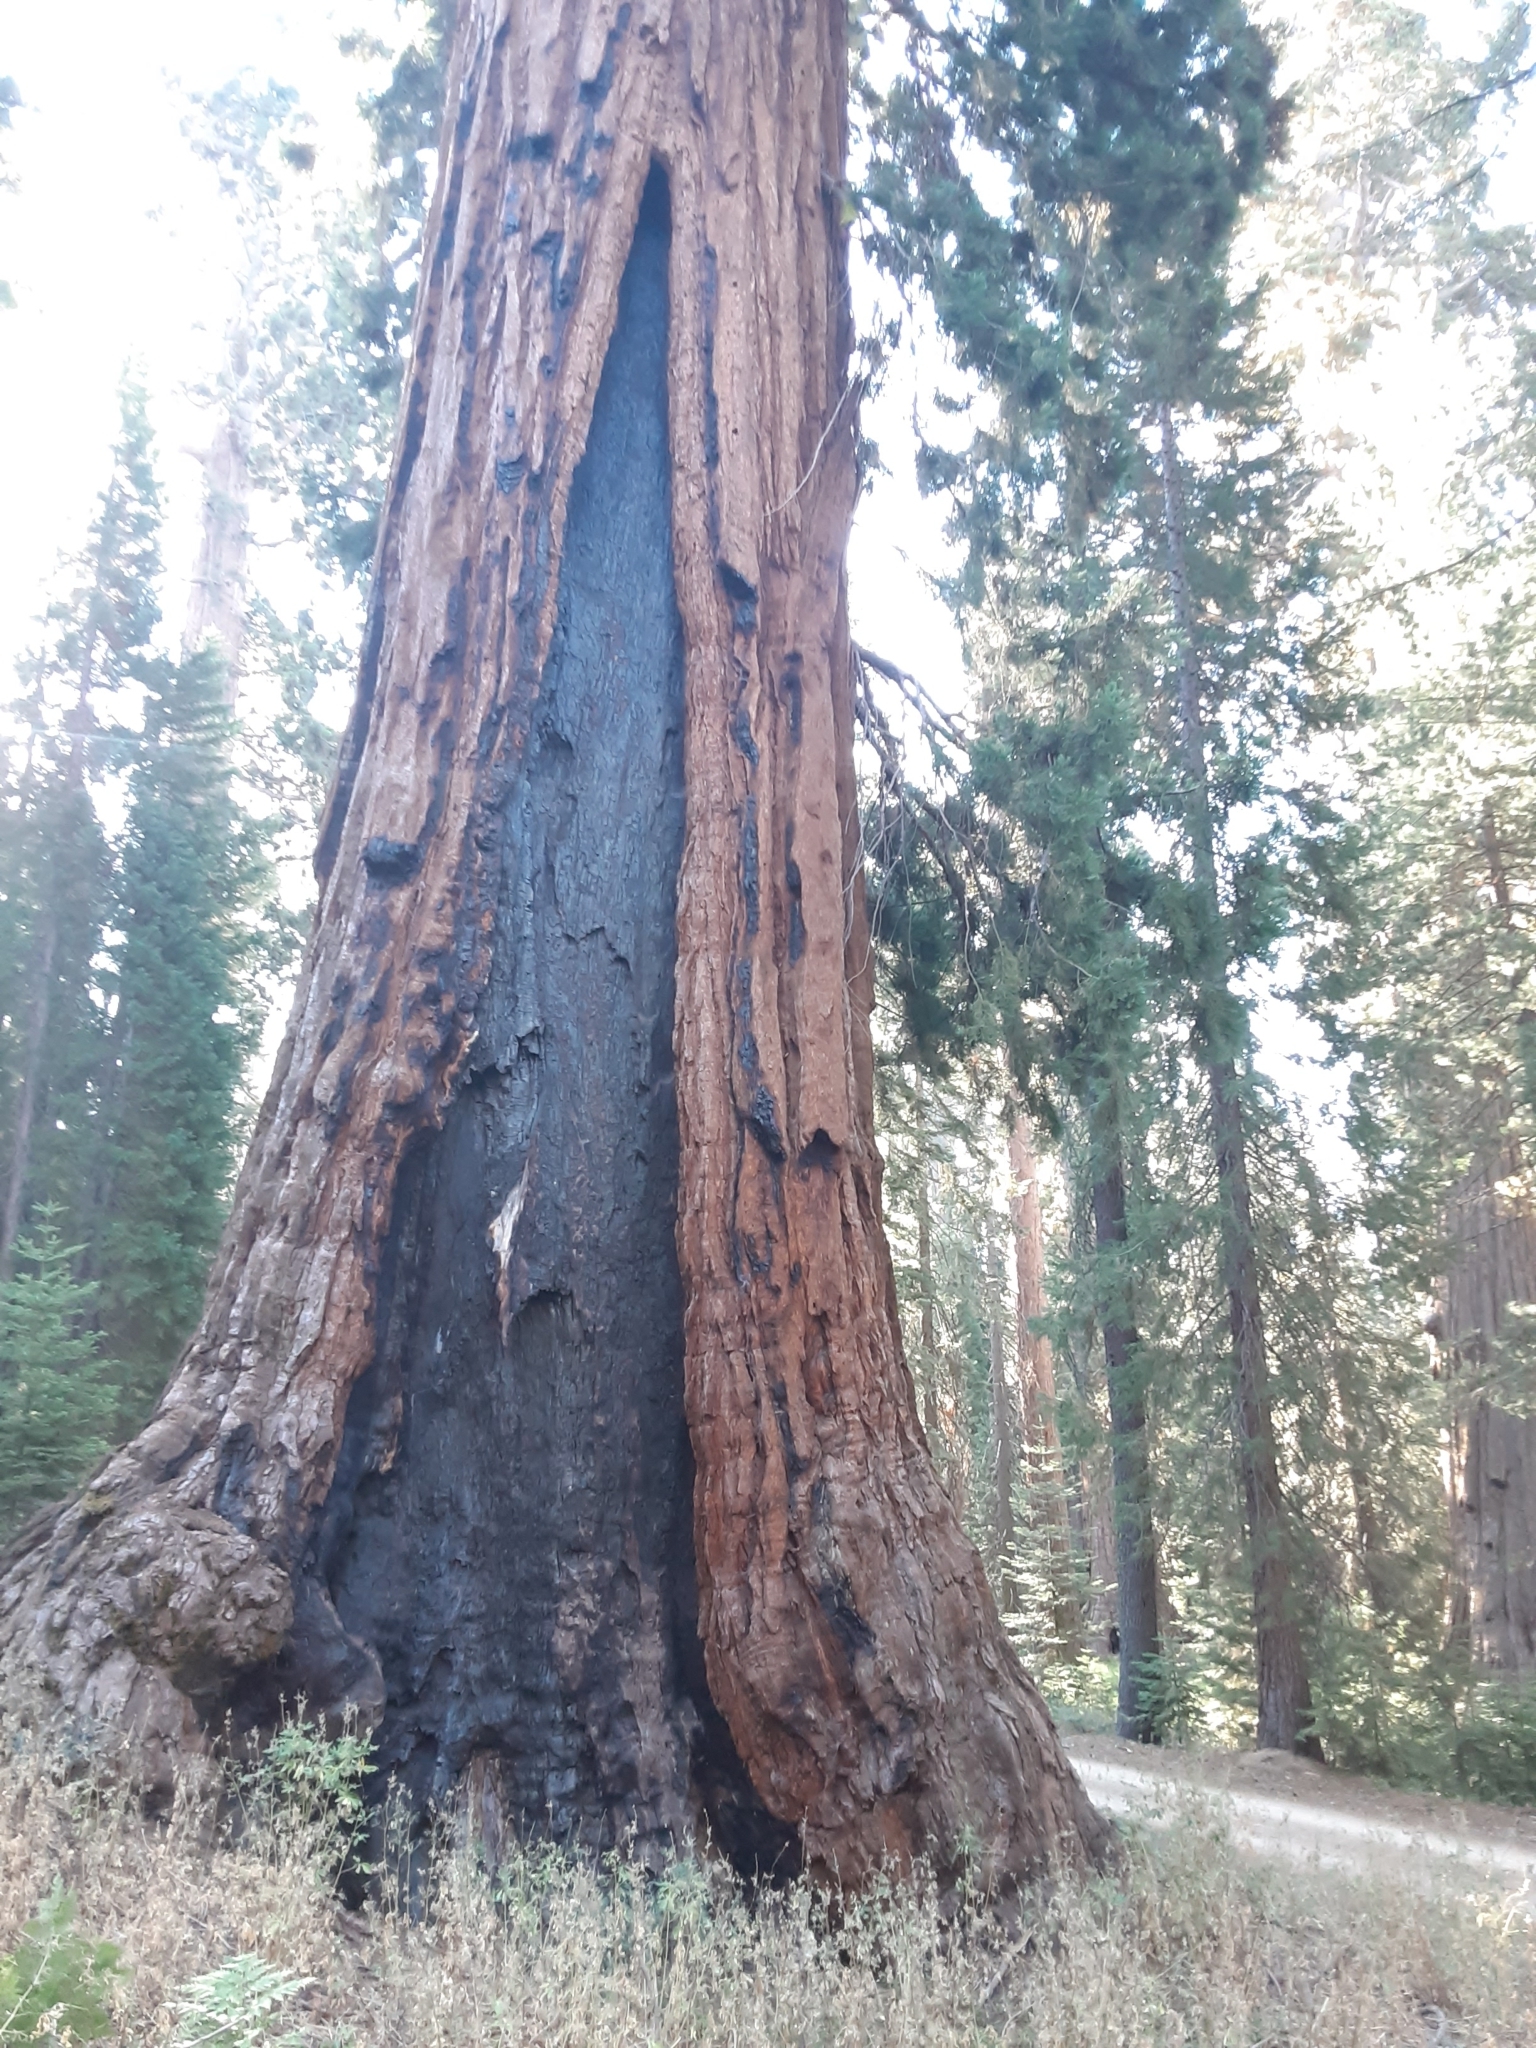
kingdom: Plantae
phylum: Tracheophyta
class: Pinopsida
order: Pinales
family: Cupressaceae
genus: Sequoiadendron
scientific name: Sequoiadendron giganteum
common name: Wellingtonia
